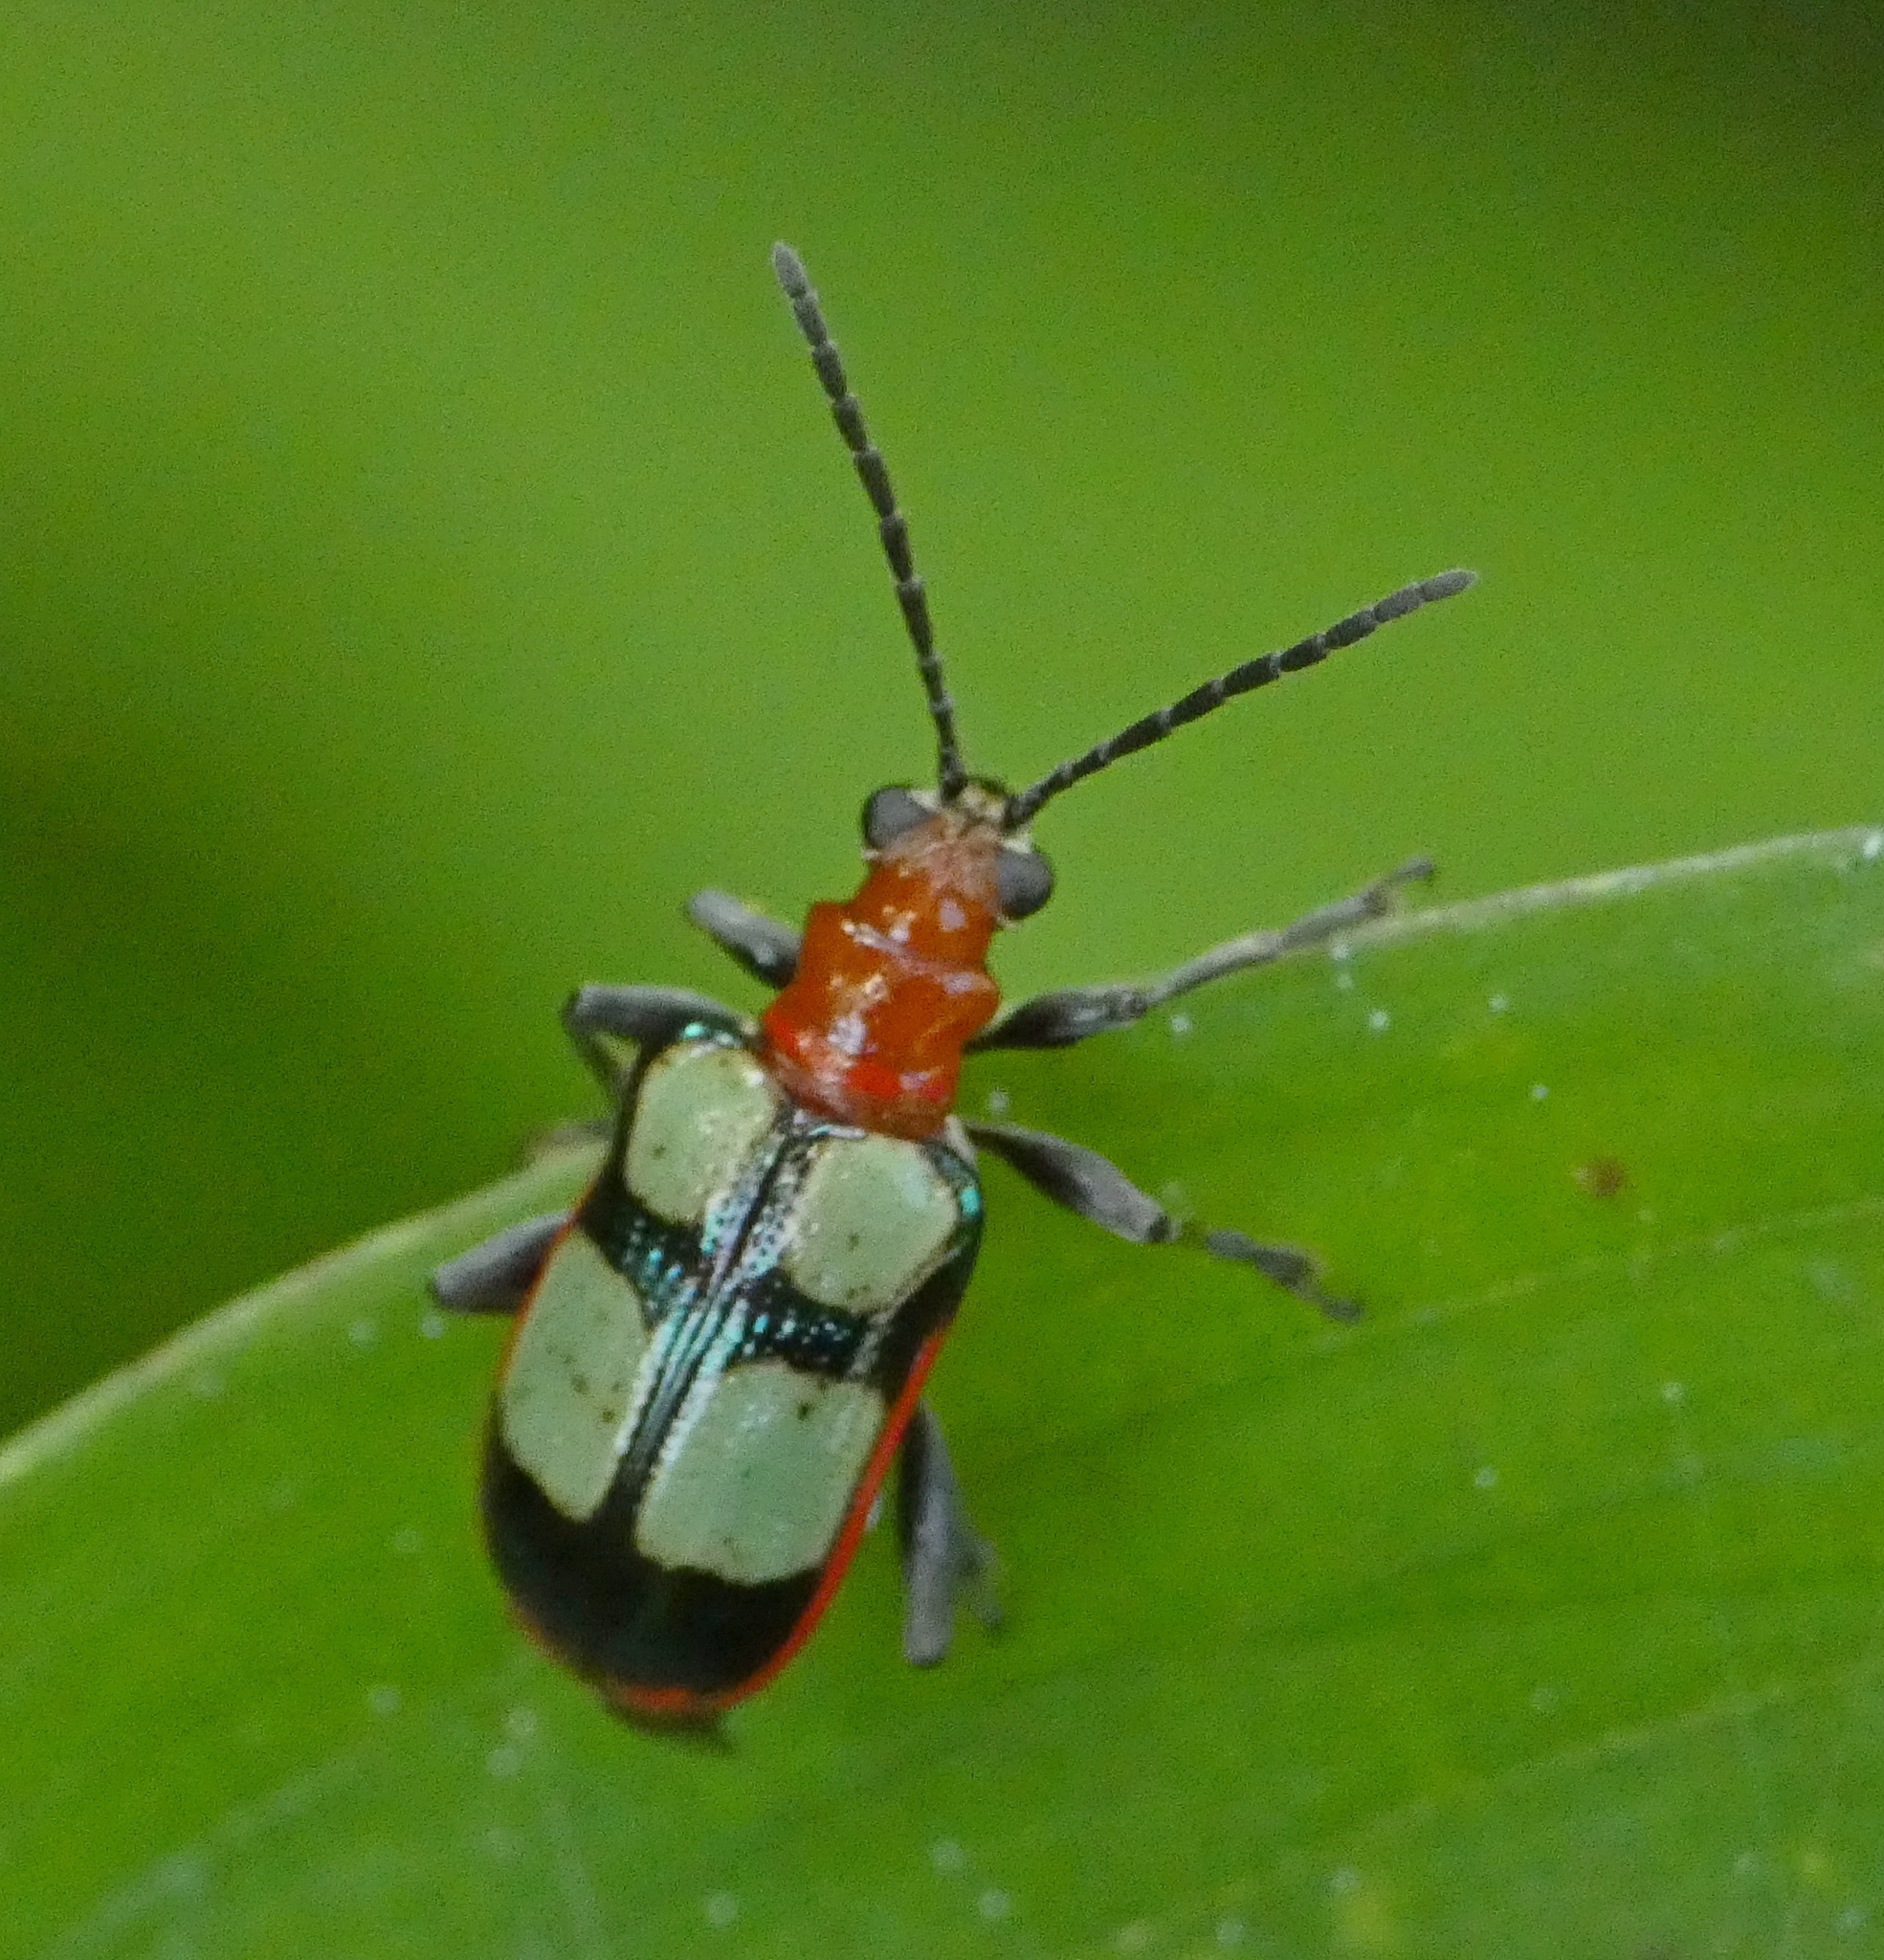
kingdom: Animalia
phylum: Arthropoda
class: Insecta
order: Coleoptera
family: Chrysomelidae
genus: Neolema
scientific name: Neolema
